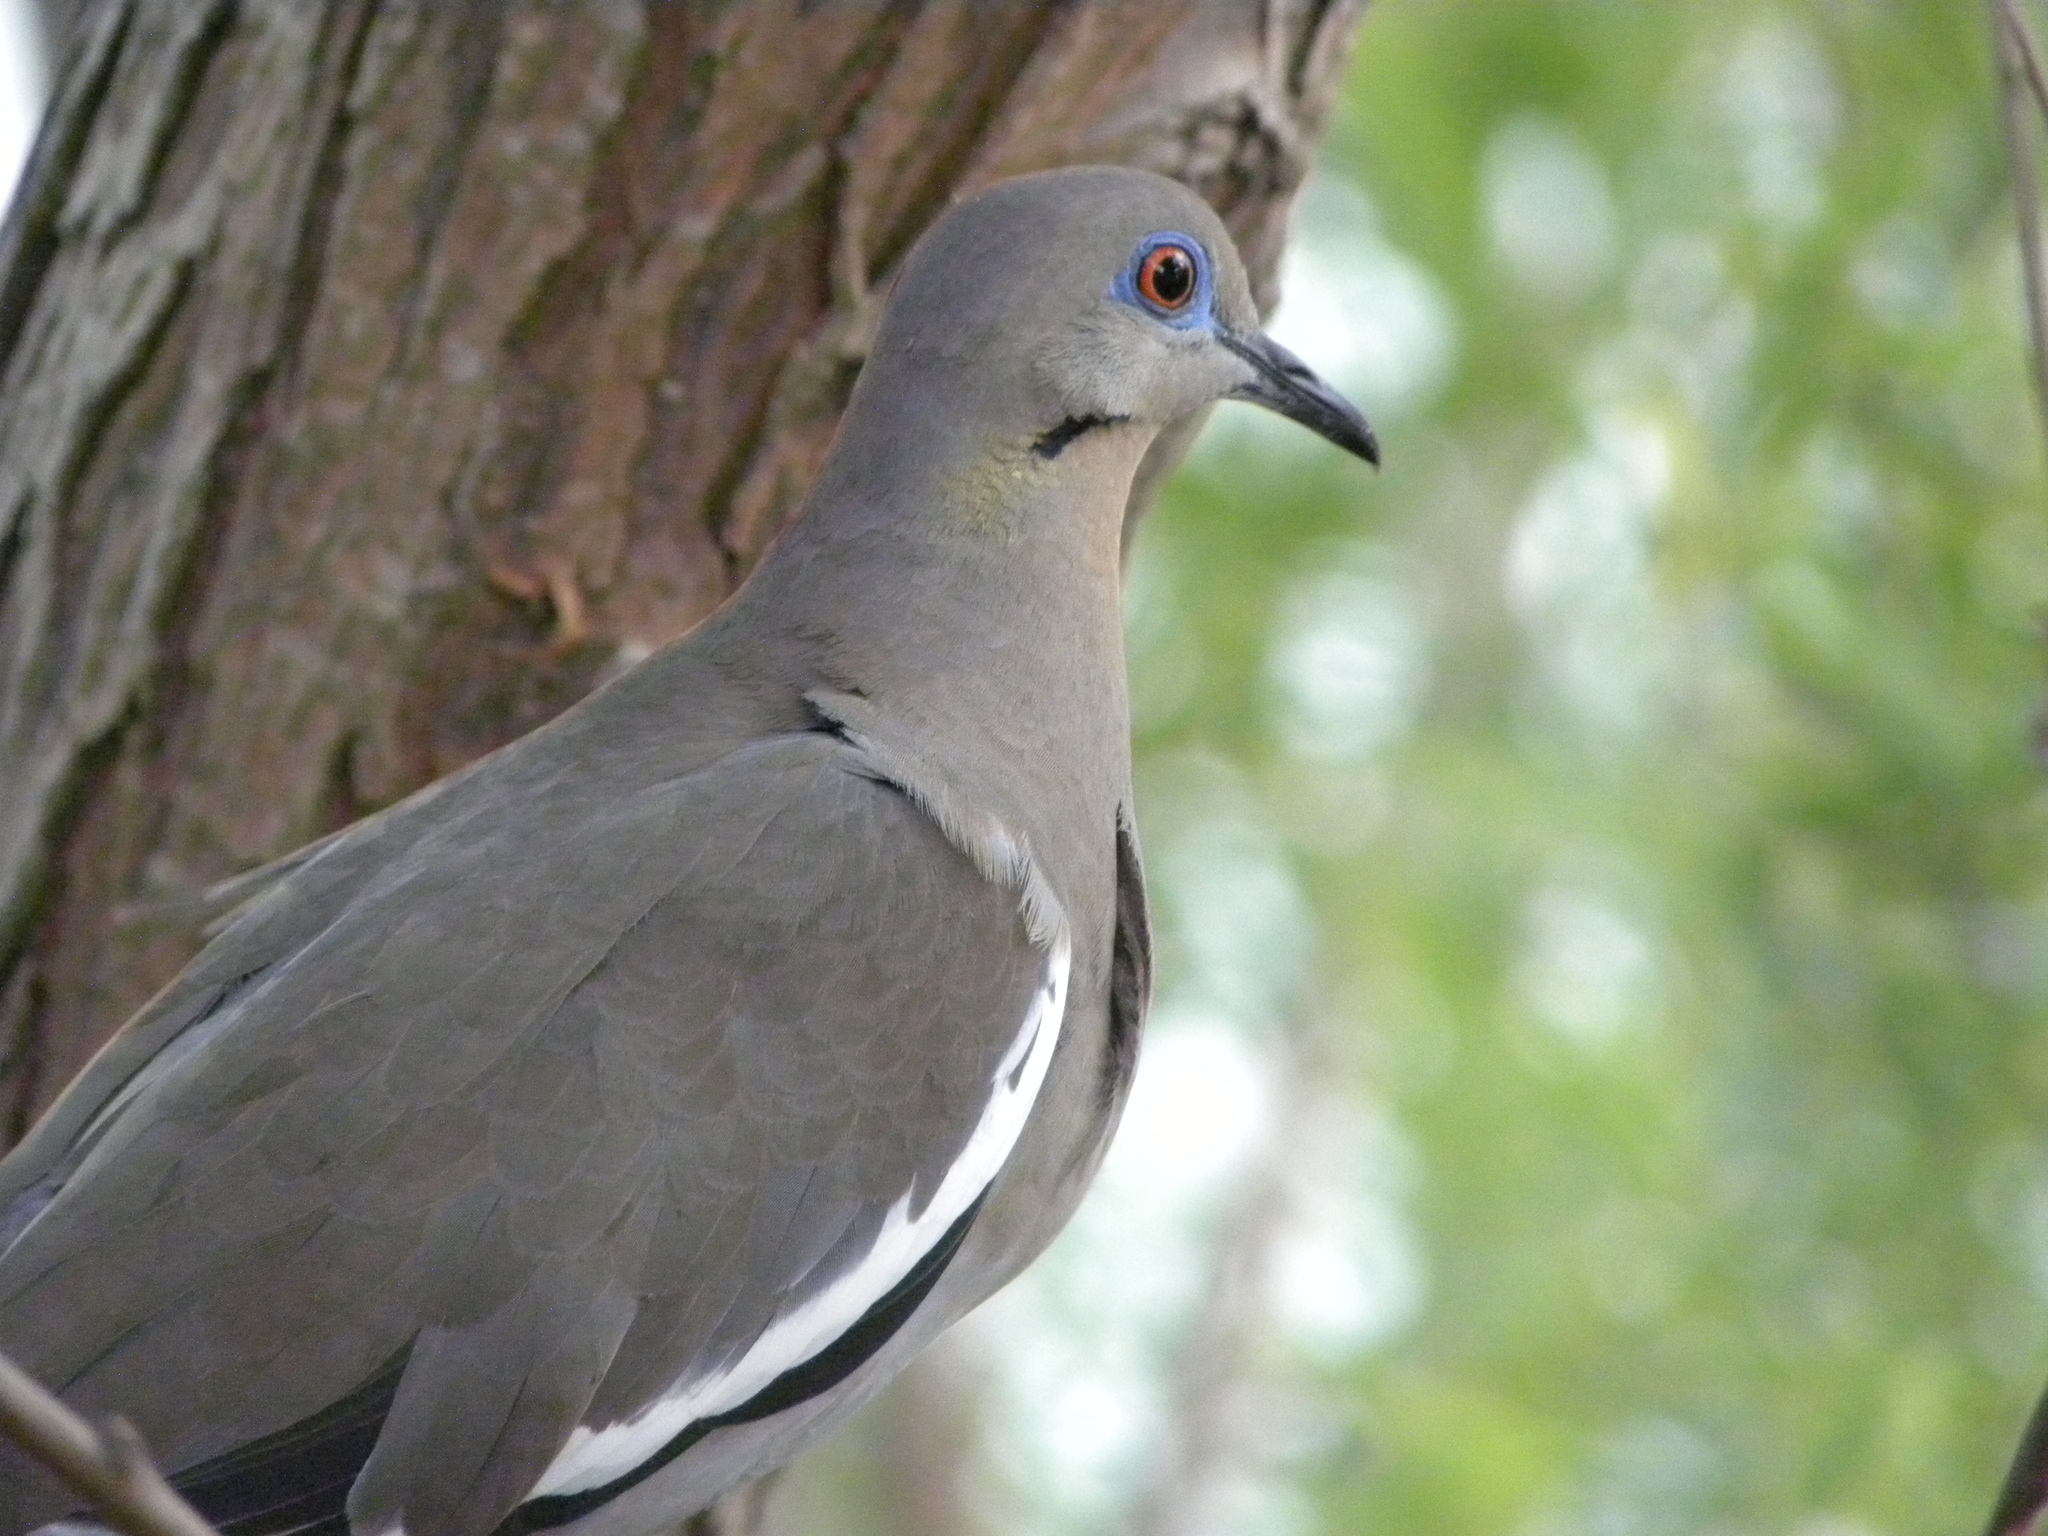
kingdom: Animalia
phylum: Chordata
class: Aves
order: Columbiformes
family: Columbidae
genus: Zenaida
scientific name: Zenaida asiatica
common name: White-winged dove
